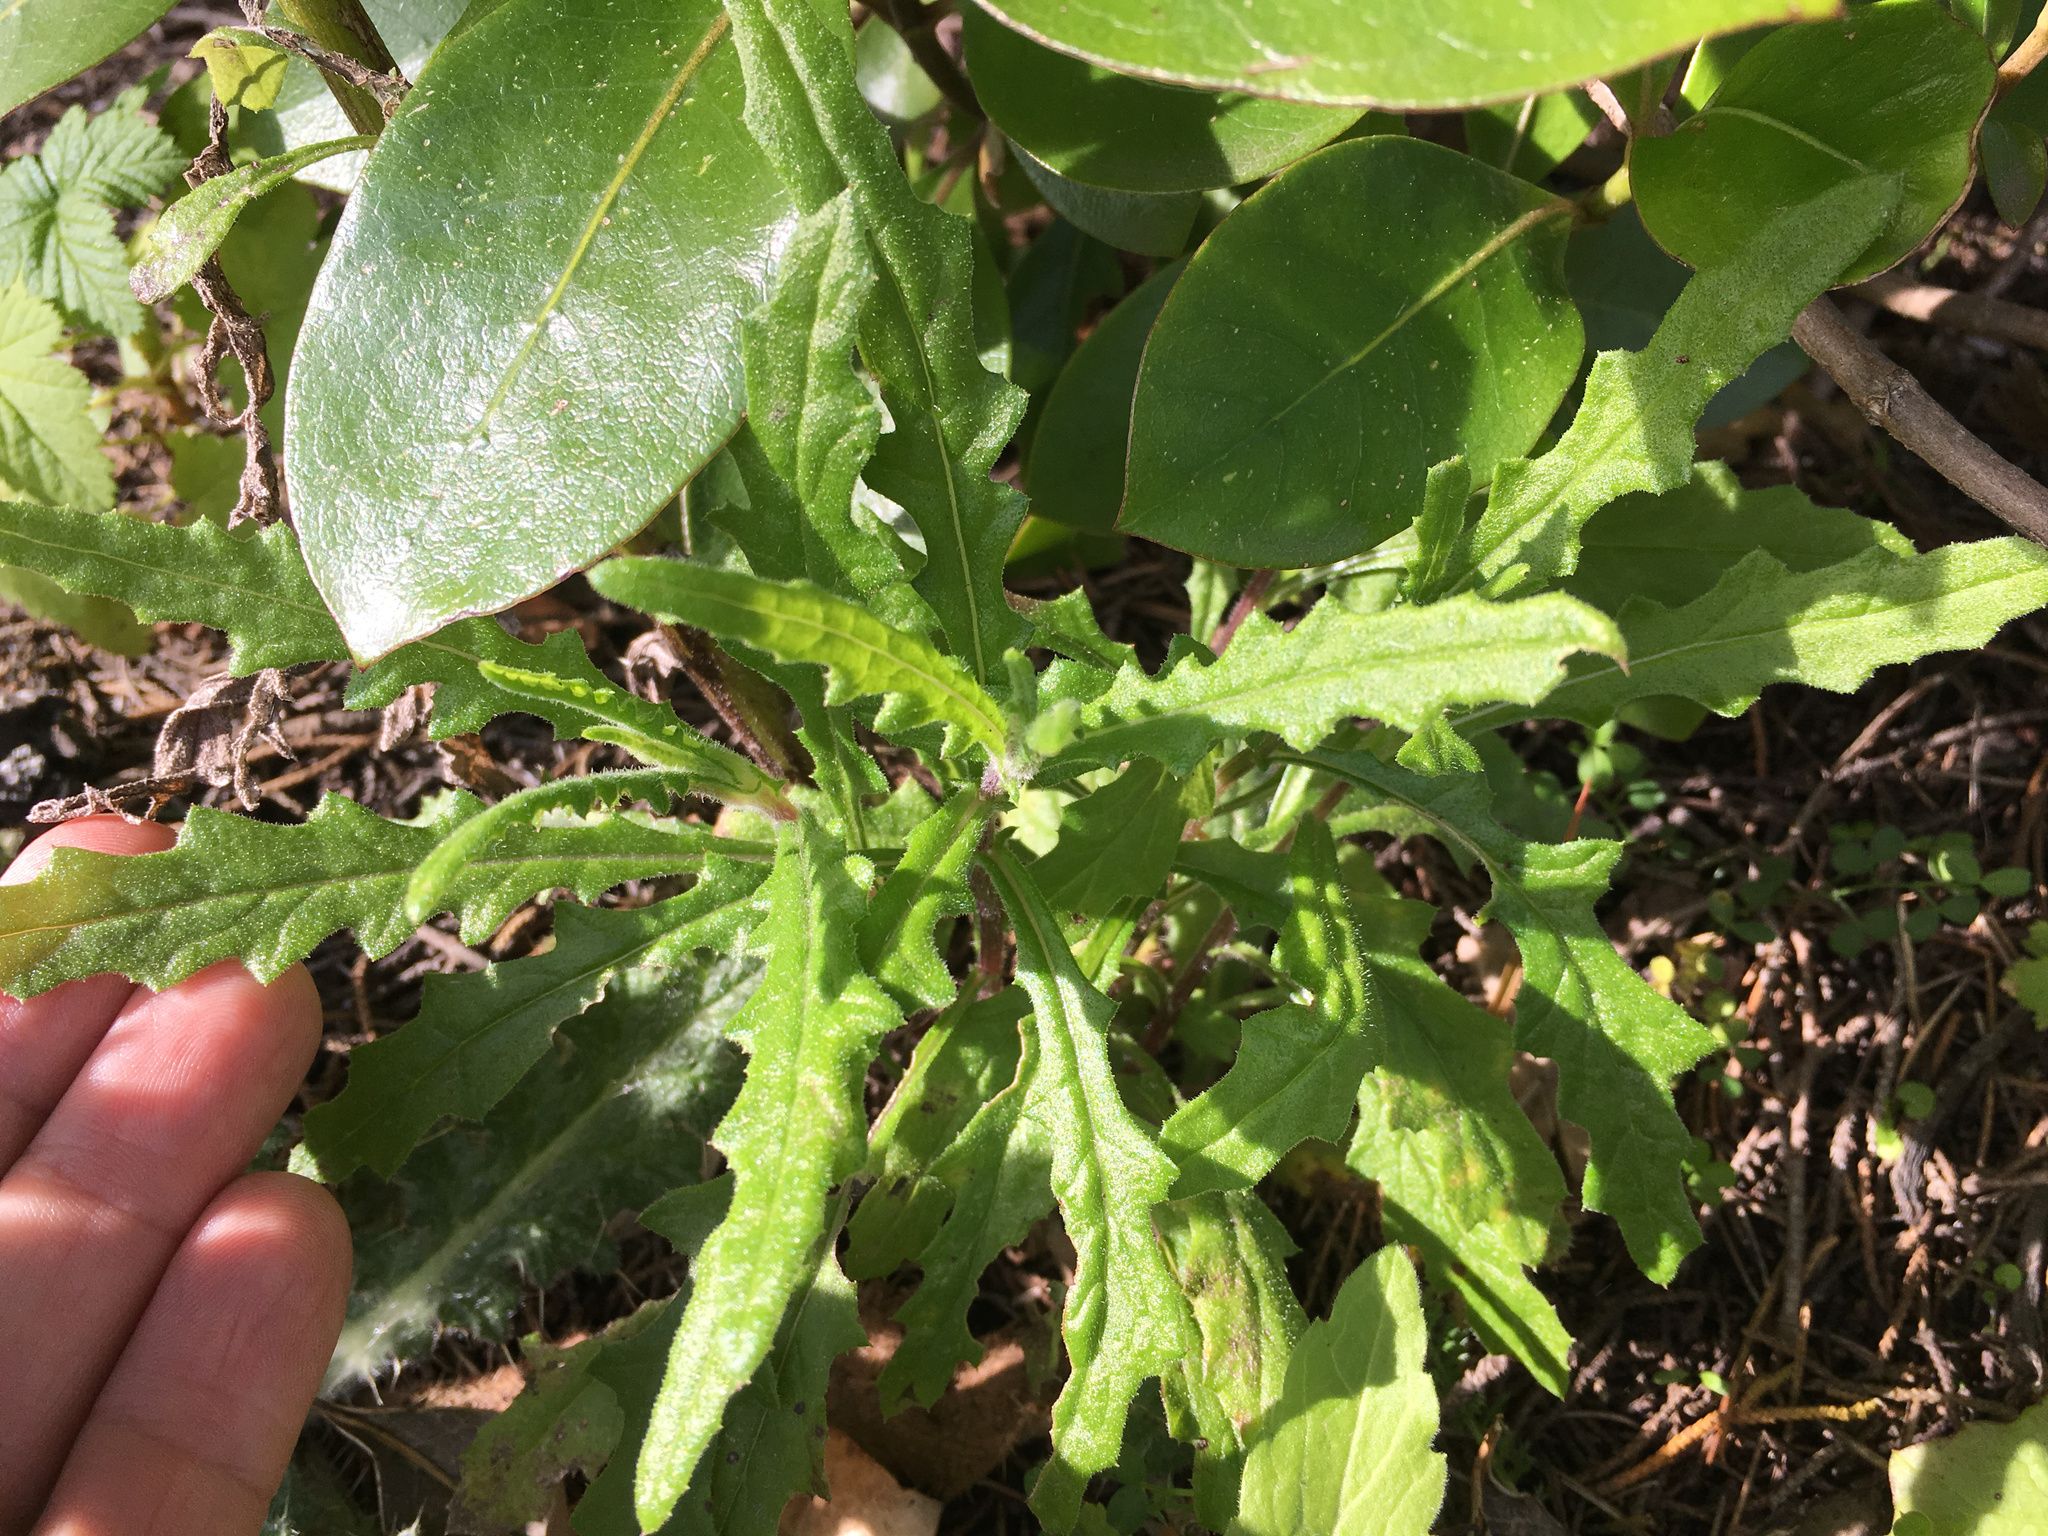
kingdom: Plantae
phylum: Tracheophyta
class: Magnoliopsida
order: Asterales
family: Asteraceae
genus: Senecio
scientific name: Senecio hispidulus
